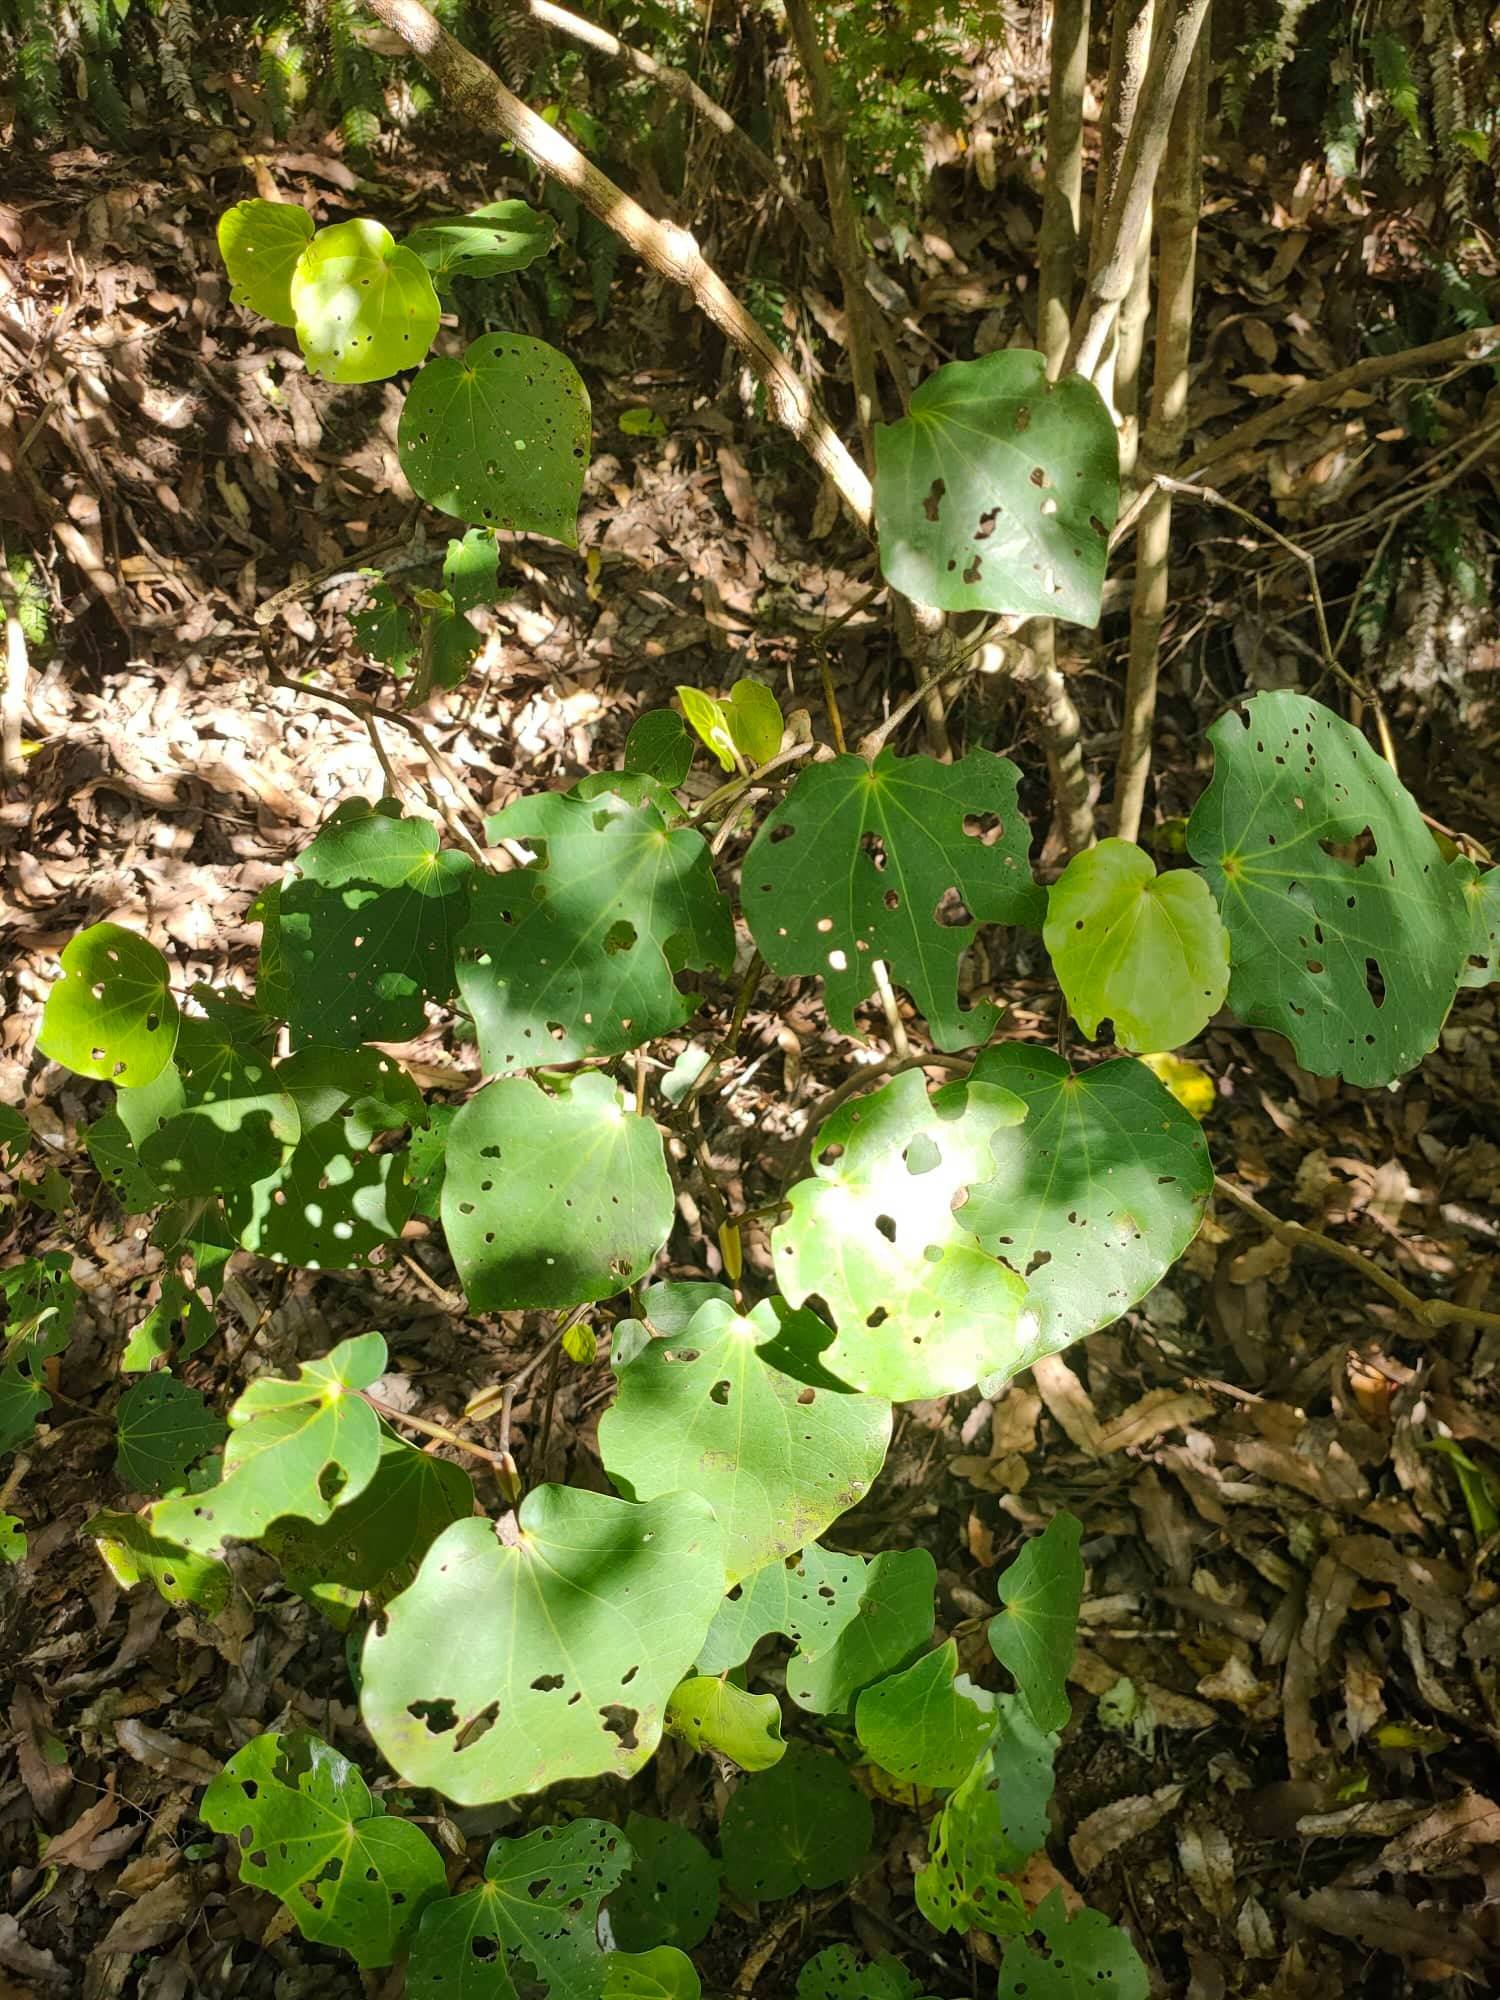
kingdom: Plantae
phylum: Tracheophyta
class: Magnoliopsida
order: Piperales
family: Piperaceae
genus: Macropiper
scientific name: Macropiper excelsum
